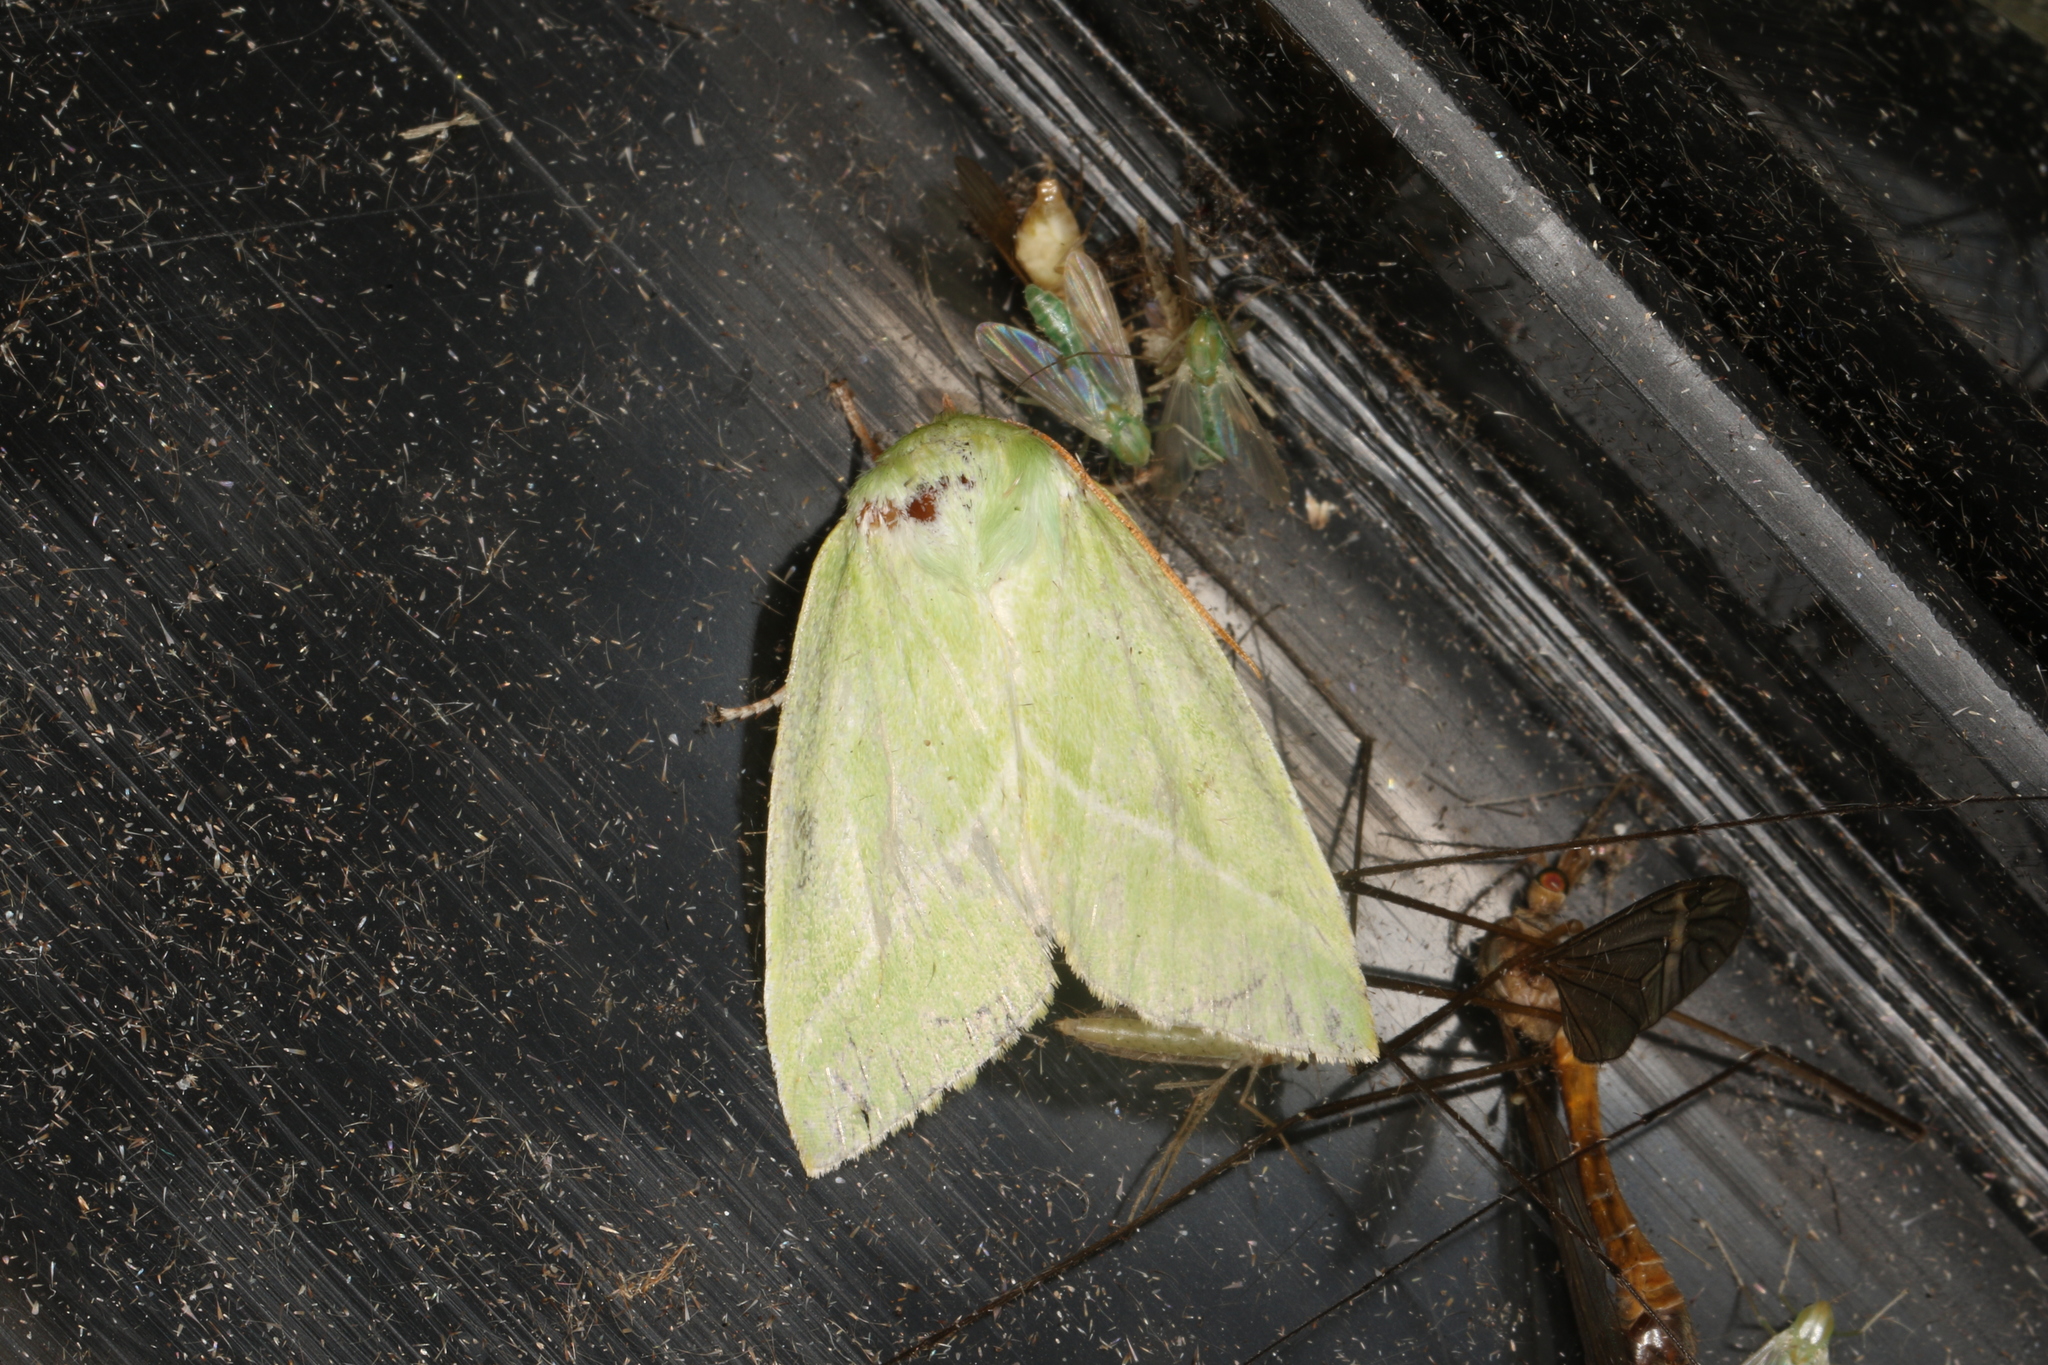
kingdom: Animalia
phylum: Arthropoda
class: Insecta
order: Lepidoptera
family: Nolidae
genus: Pseudoips
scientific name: Pseudoips prasinana
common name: Green silver-lines
